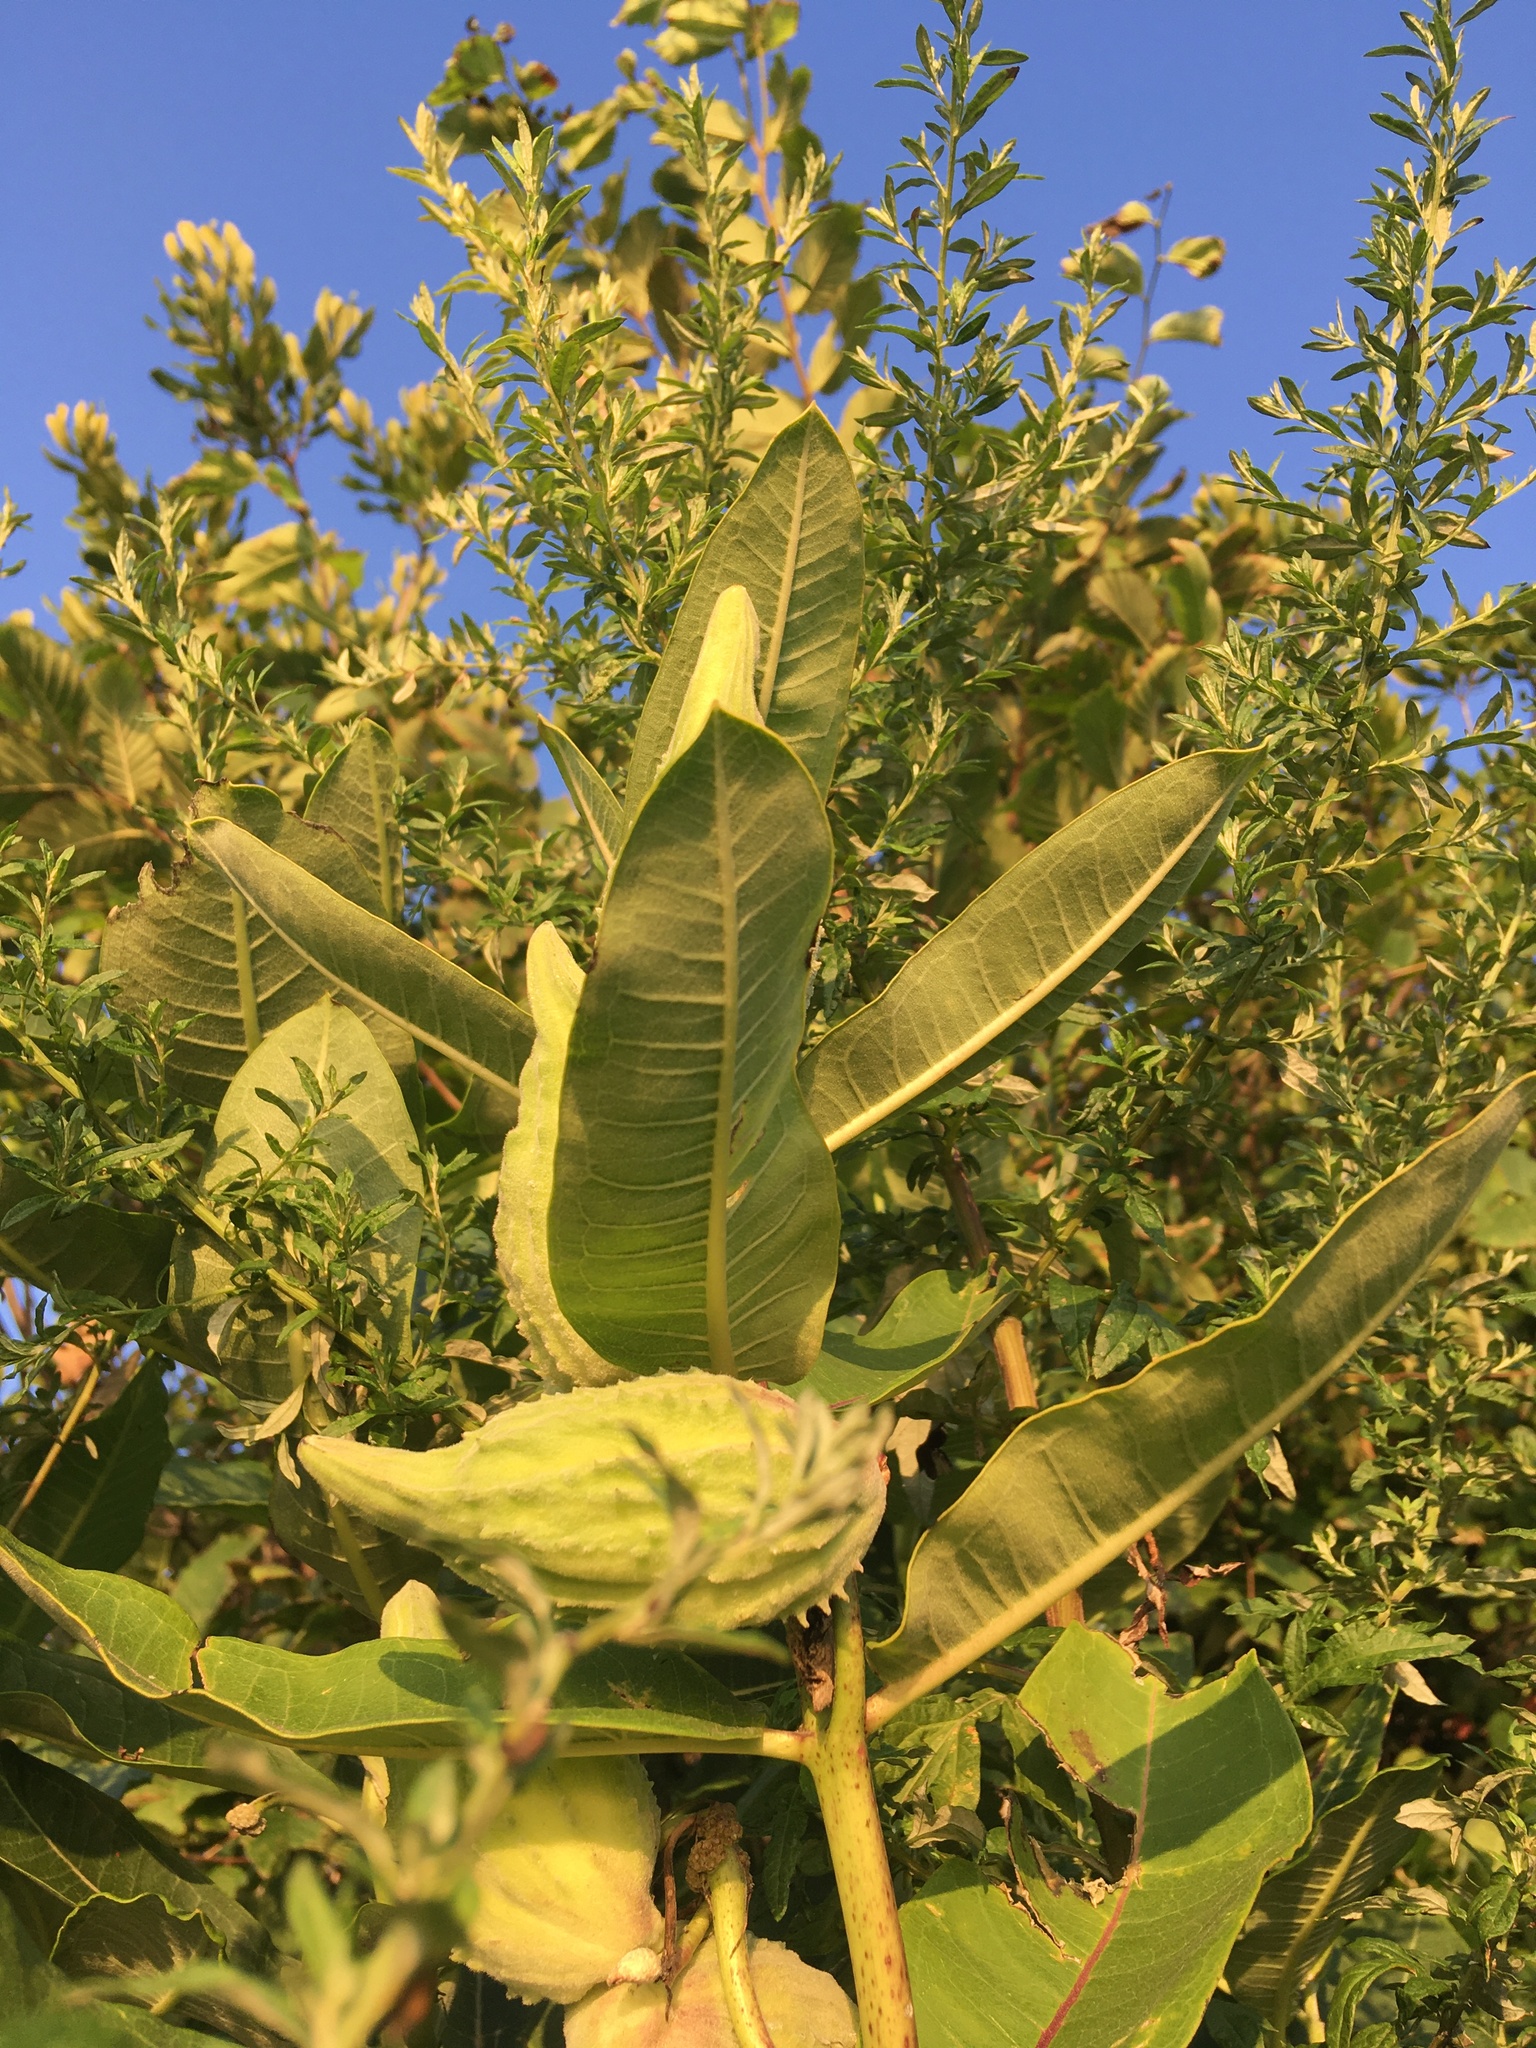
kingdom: Plantae
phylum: Tracheophyta
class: Magnoliopsida
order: Gentianales
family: Apocynaceae
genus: Asclepias
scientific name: Asclepias syriaca
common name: Common milkweed
